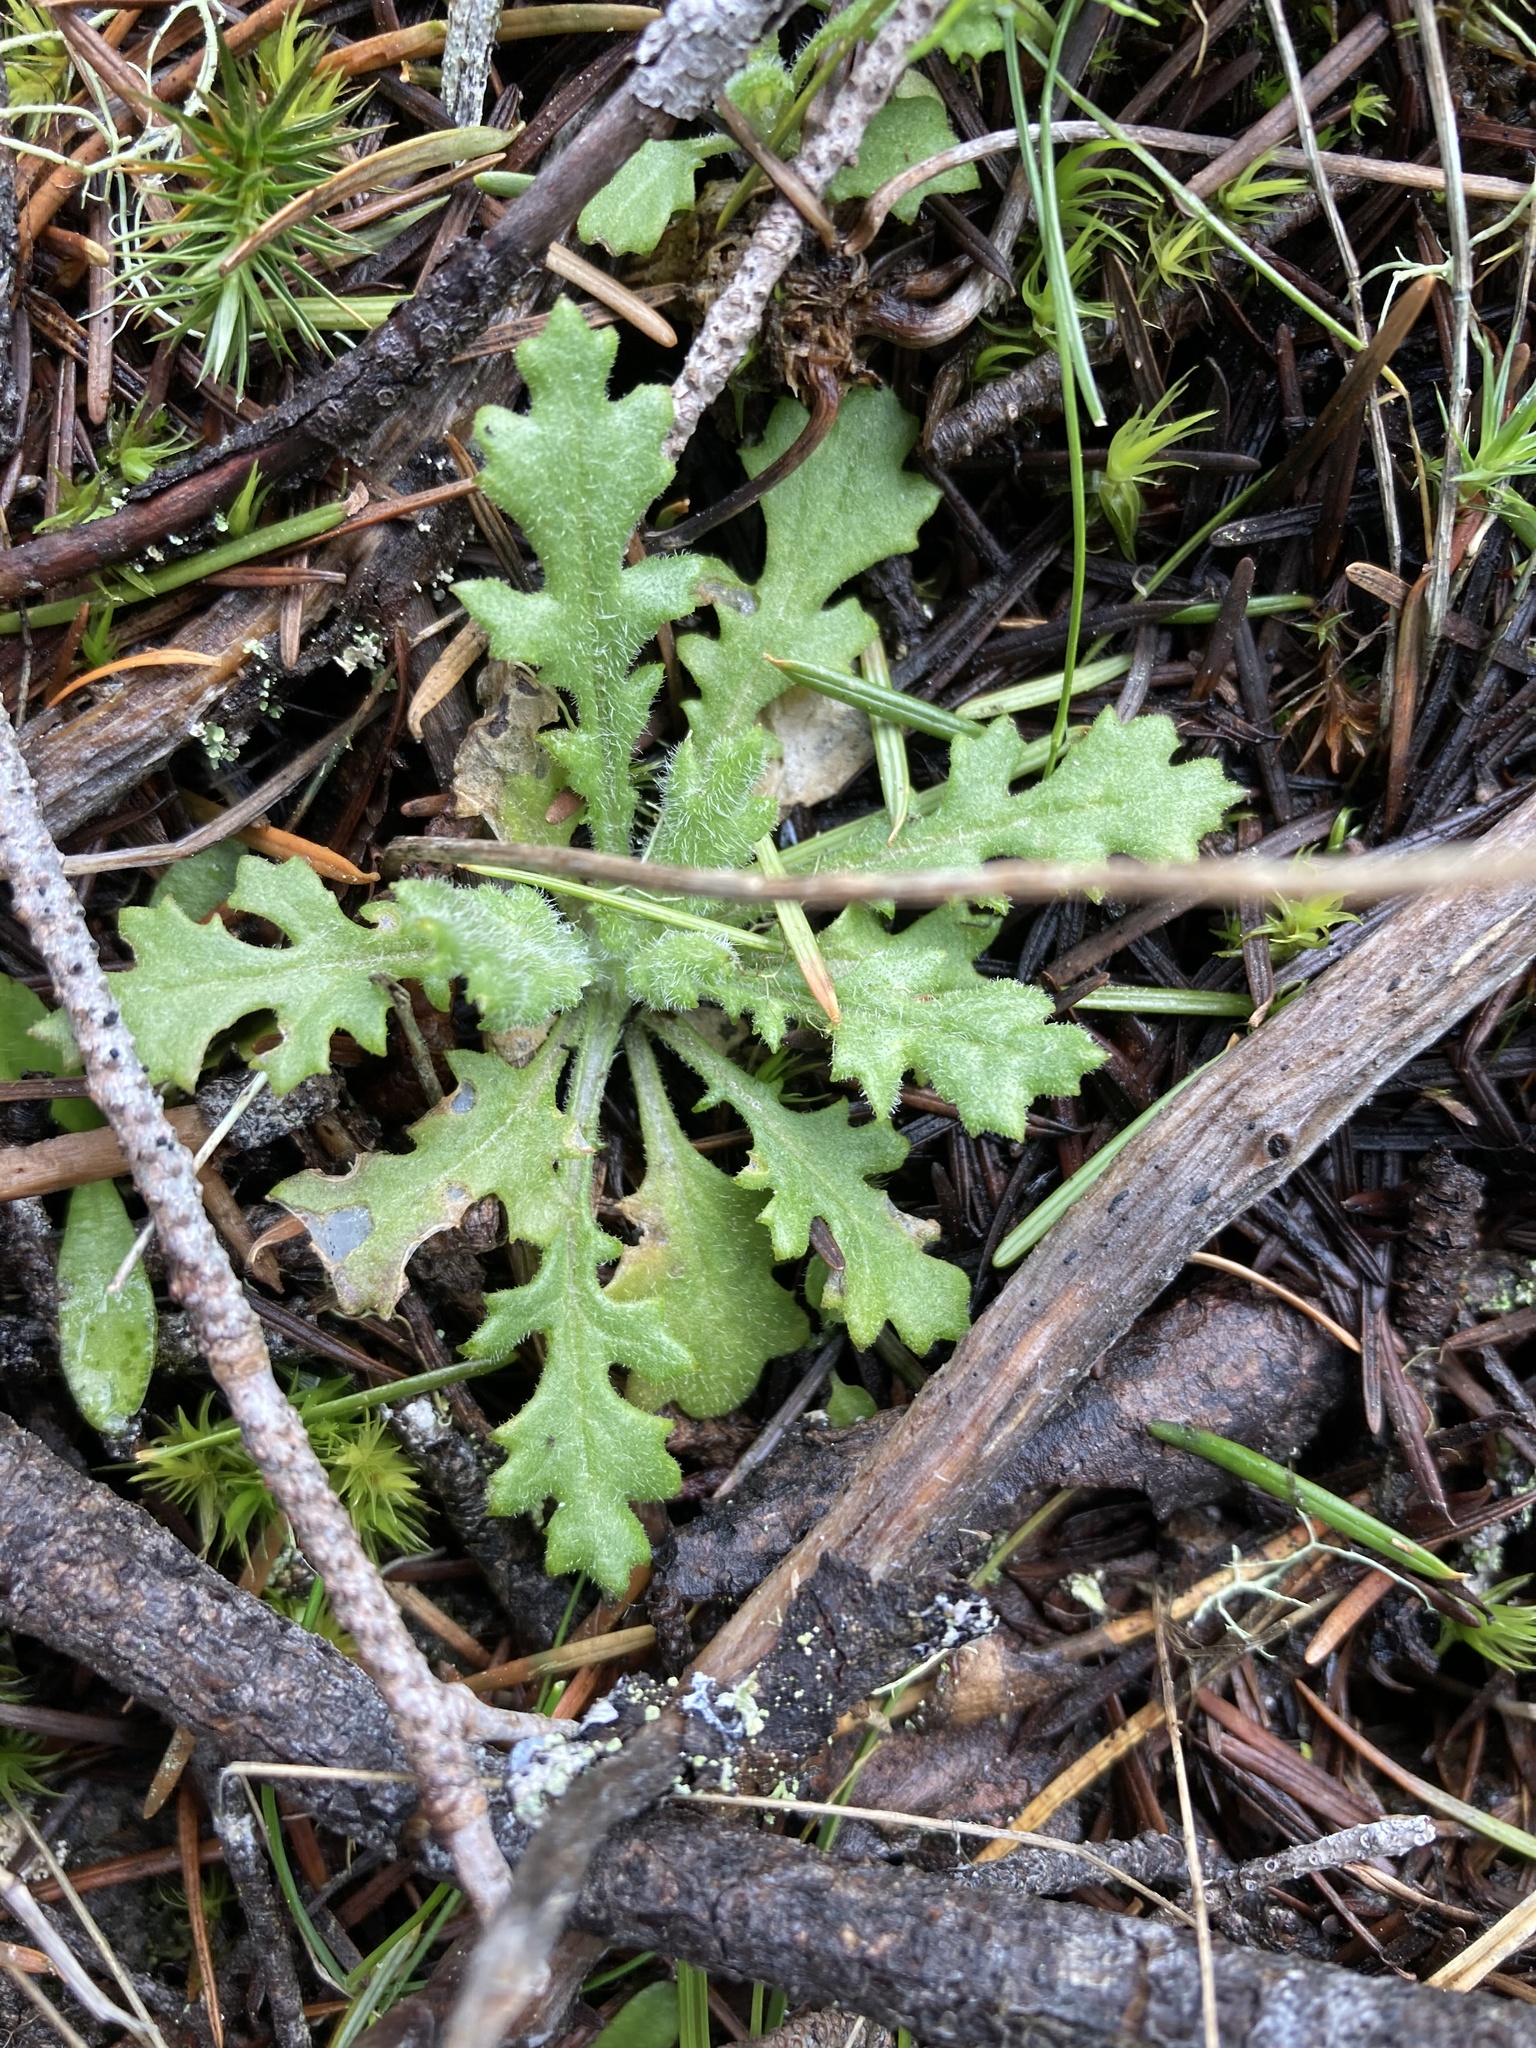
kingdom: Plantae
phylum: Tracheophyta
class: Magnoliopsida
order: Asterales
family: Asteraceae
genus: Senecio
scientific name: Senecio sylvaticus
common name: Woodland ragwort
